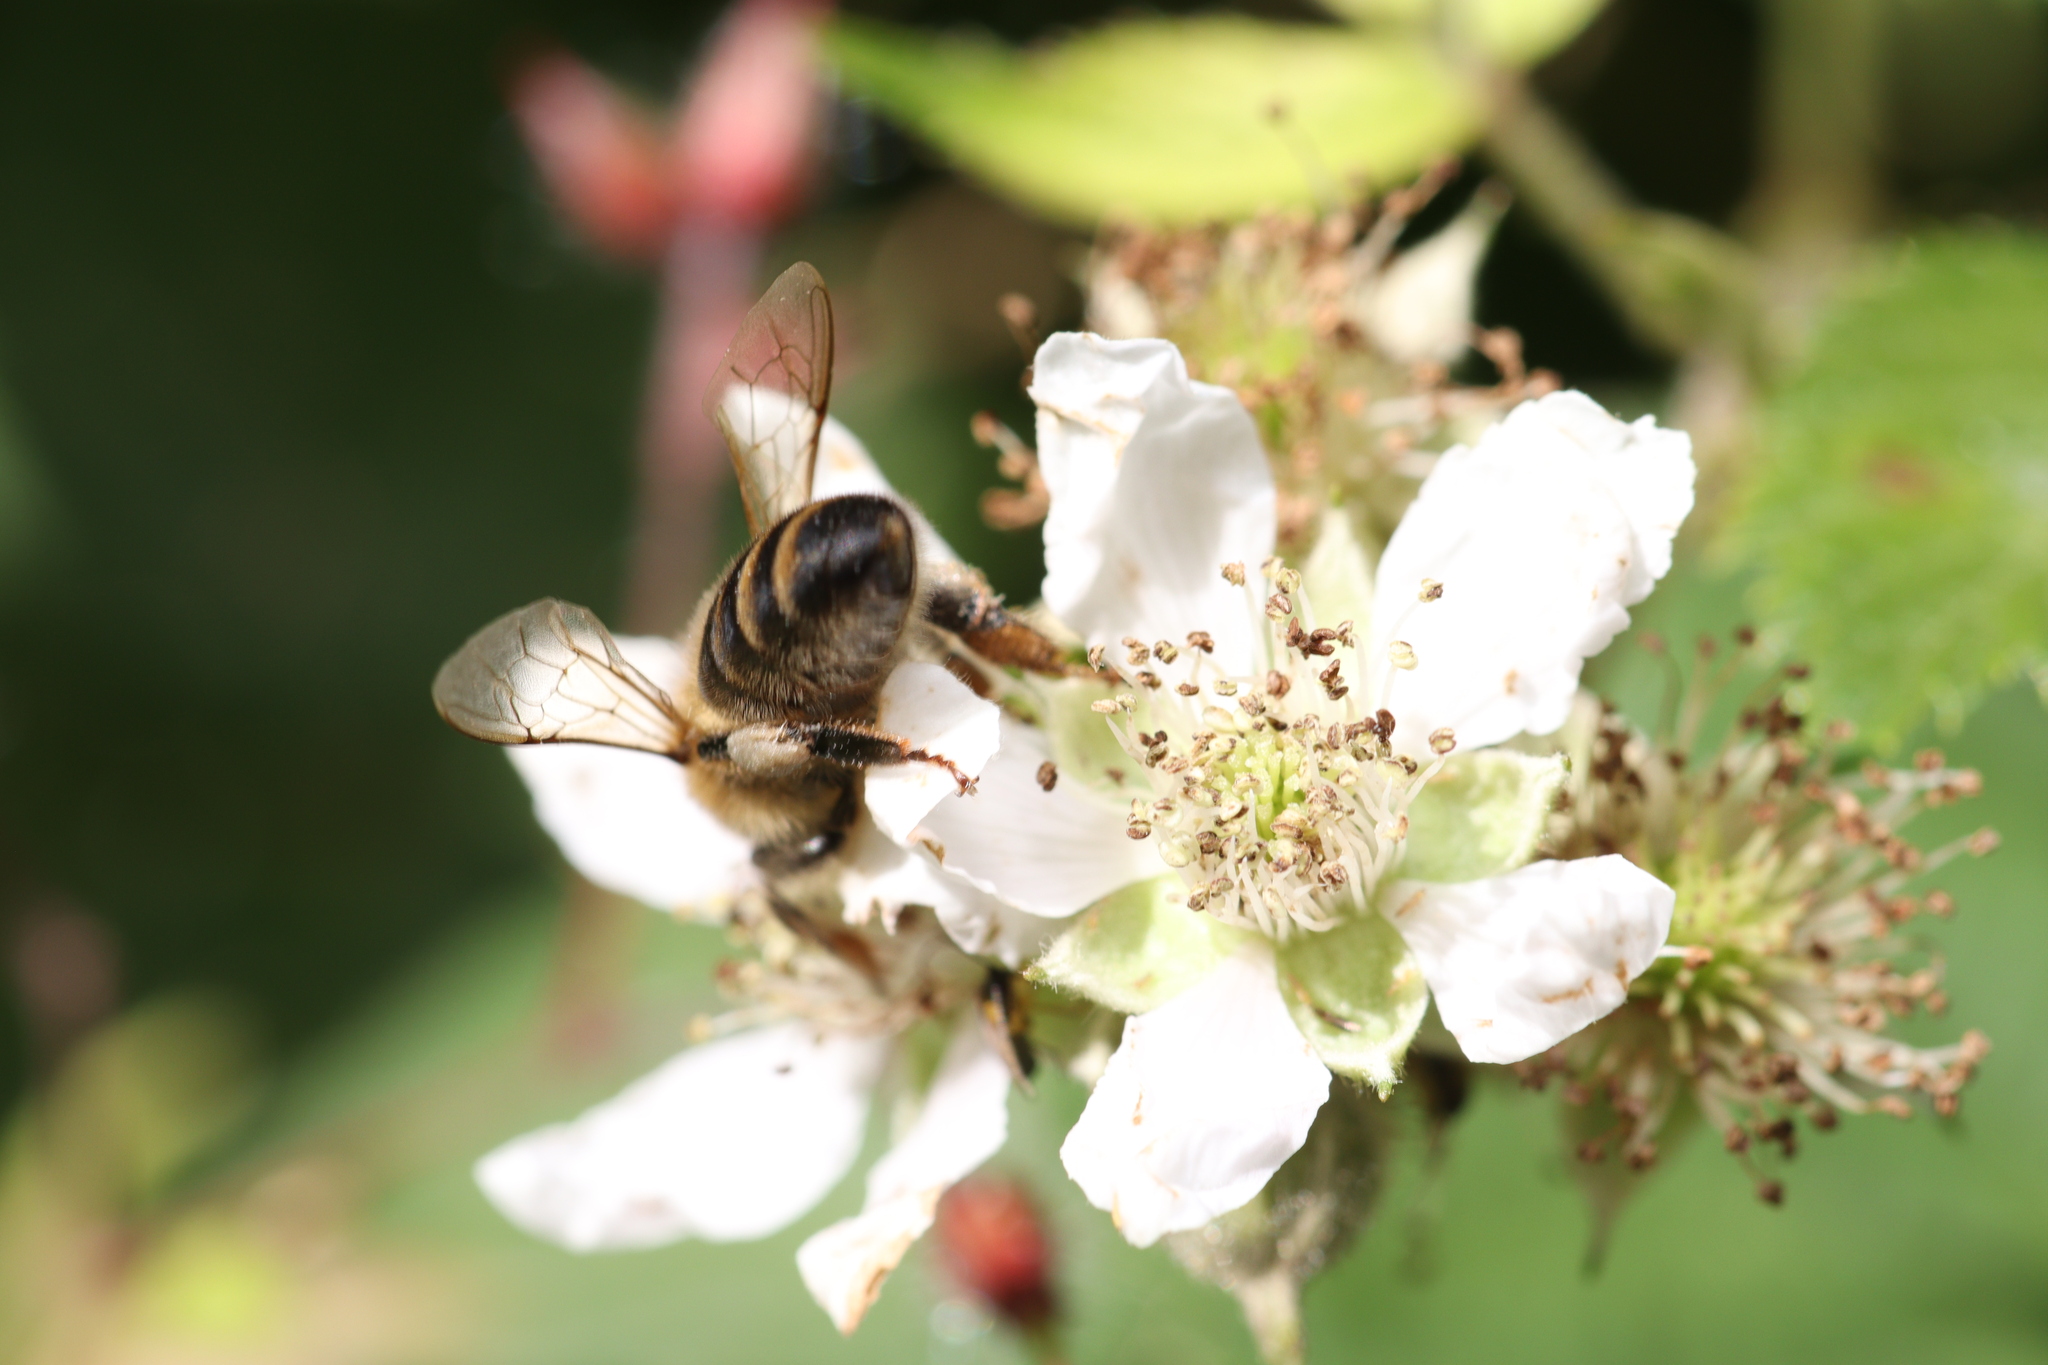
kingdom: Animalia
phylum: Arthropoda
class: Insecta
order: Hymenoptera
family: Apidae
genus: Apis
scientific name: Apis mellifera
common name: Honey bee
